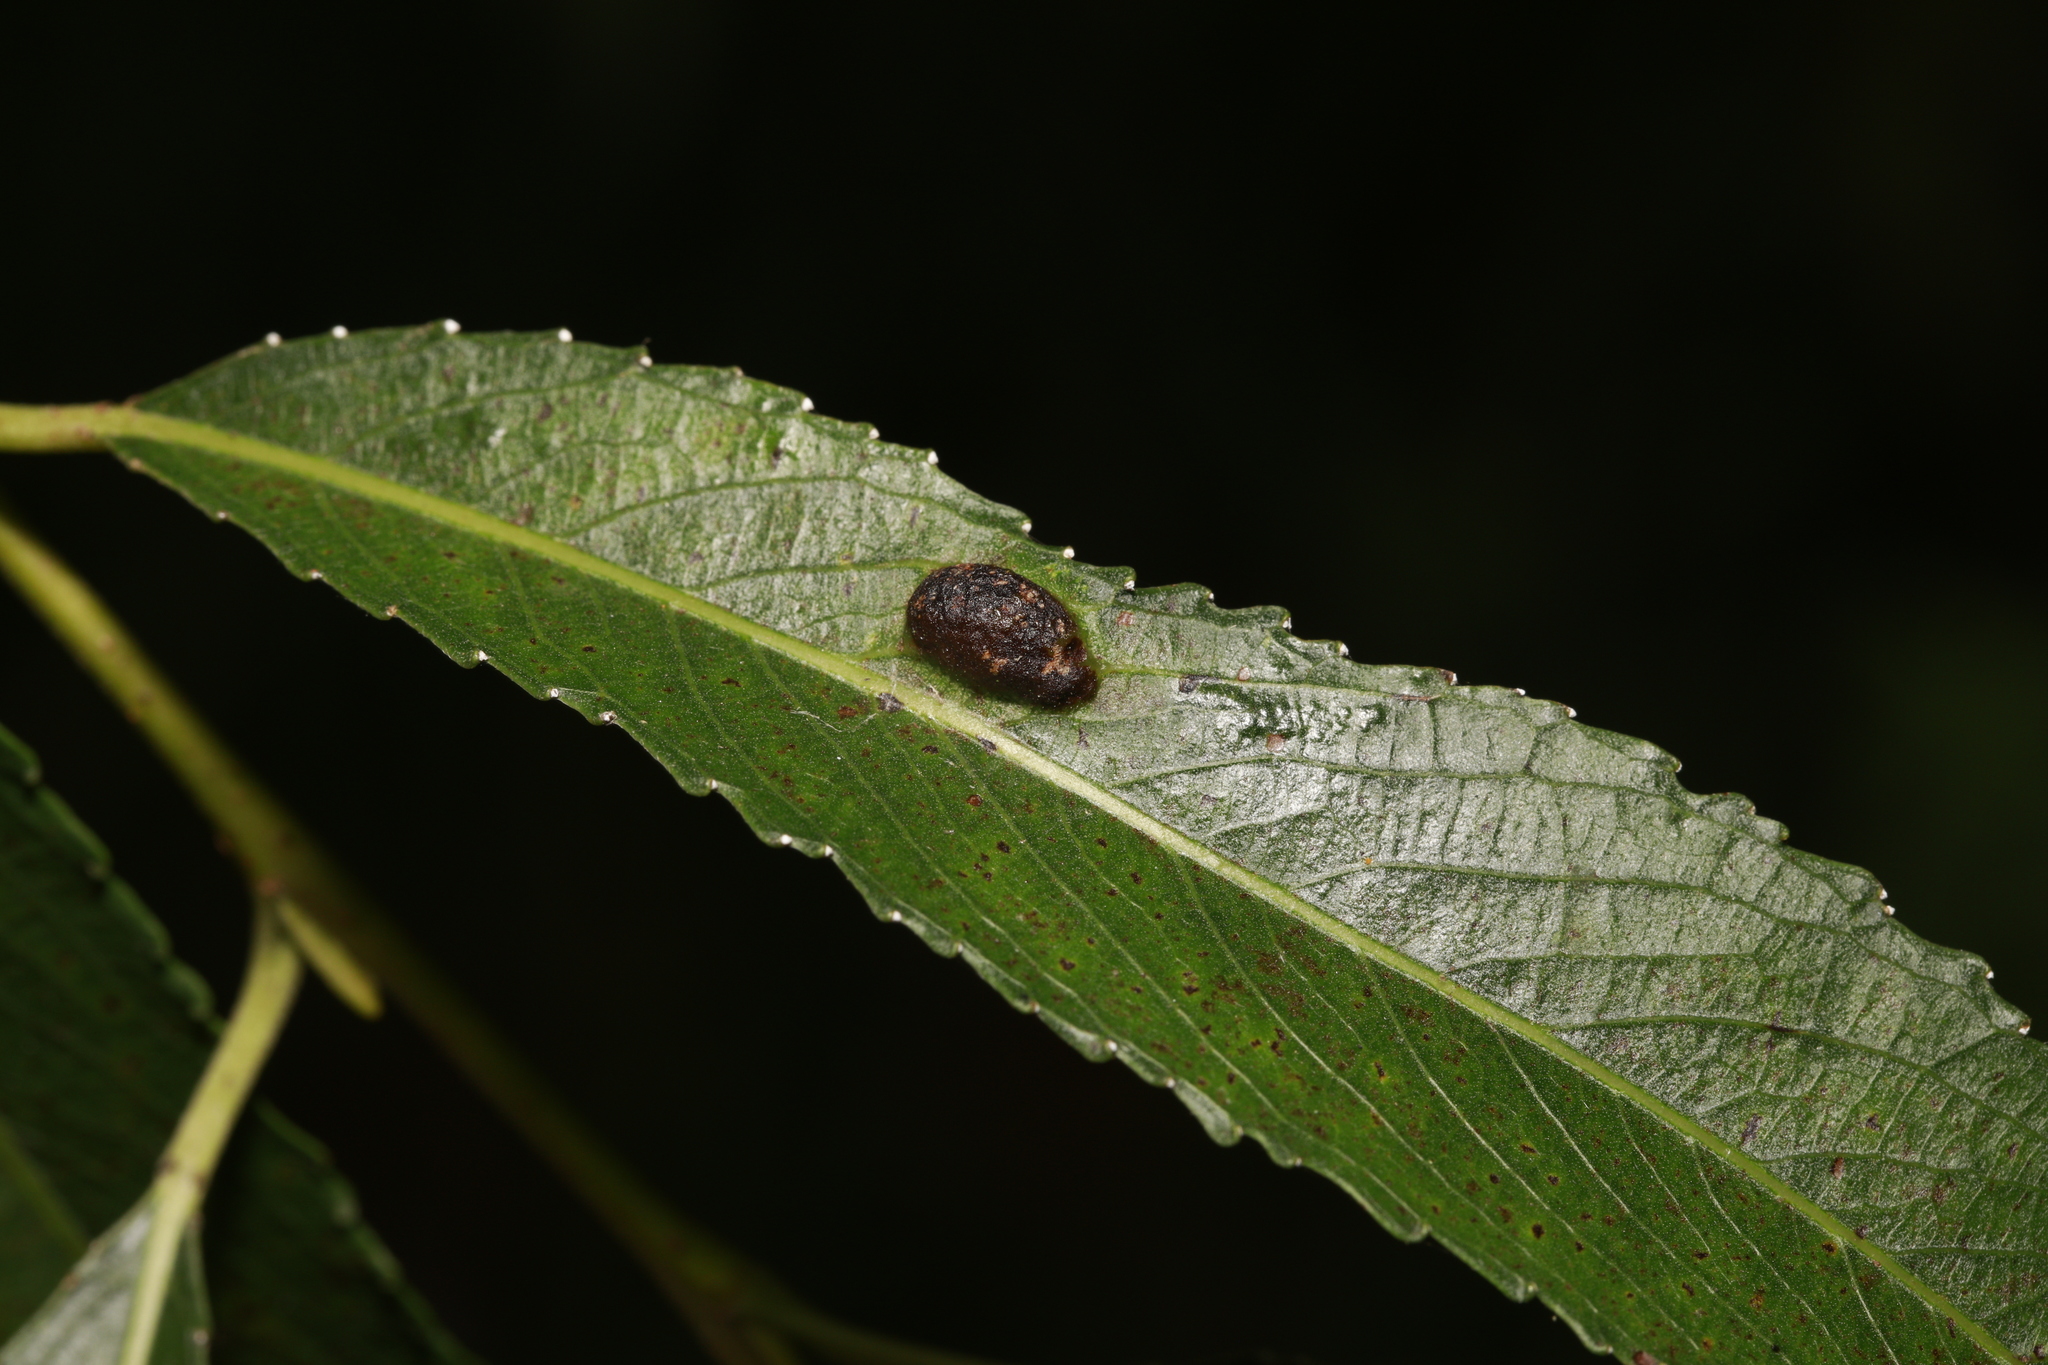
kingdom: Animalia
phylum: Arthropoda
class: Insecta
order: Hymenoptera
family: Tenthredinidae
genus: Pontania
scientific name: Pontania proxima
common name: Common sawfly
